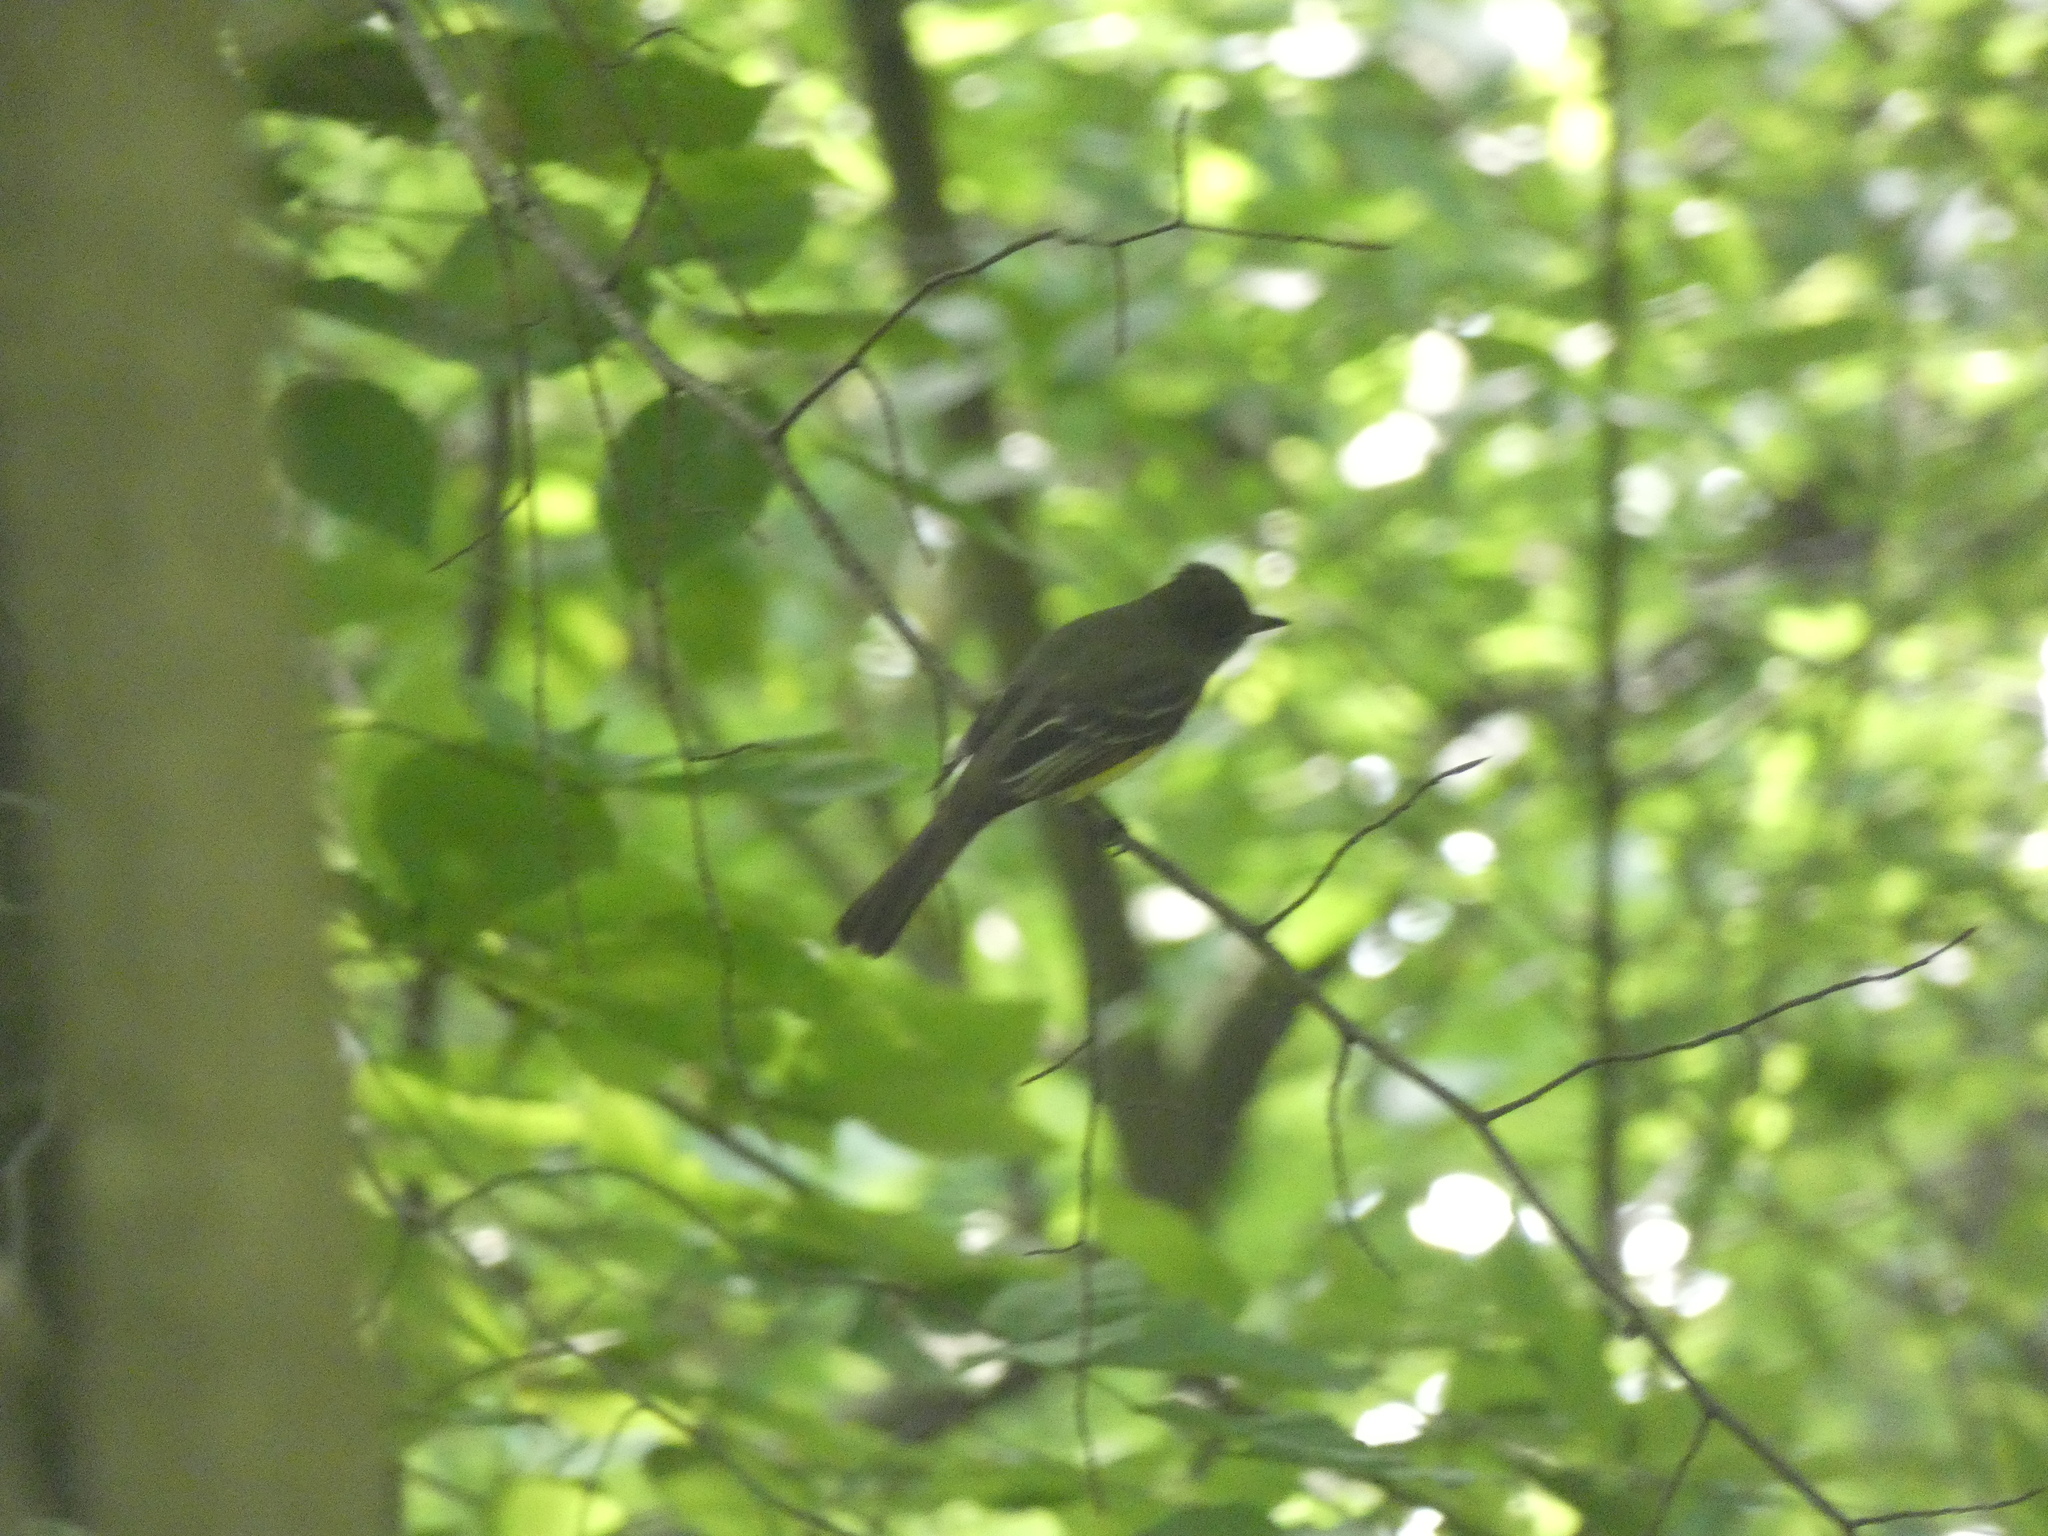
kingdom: Animalia
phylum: Chordata
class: Aves
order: Passeriformes
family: Tyrannidae
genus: Myiarchus
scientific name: Myiarchus crinitus
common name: Great crested flycatcher
